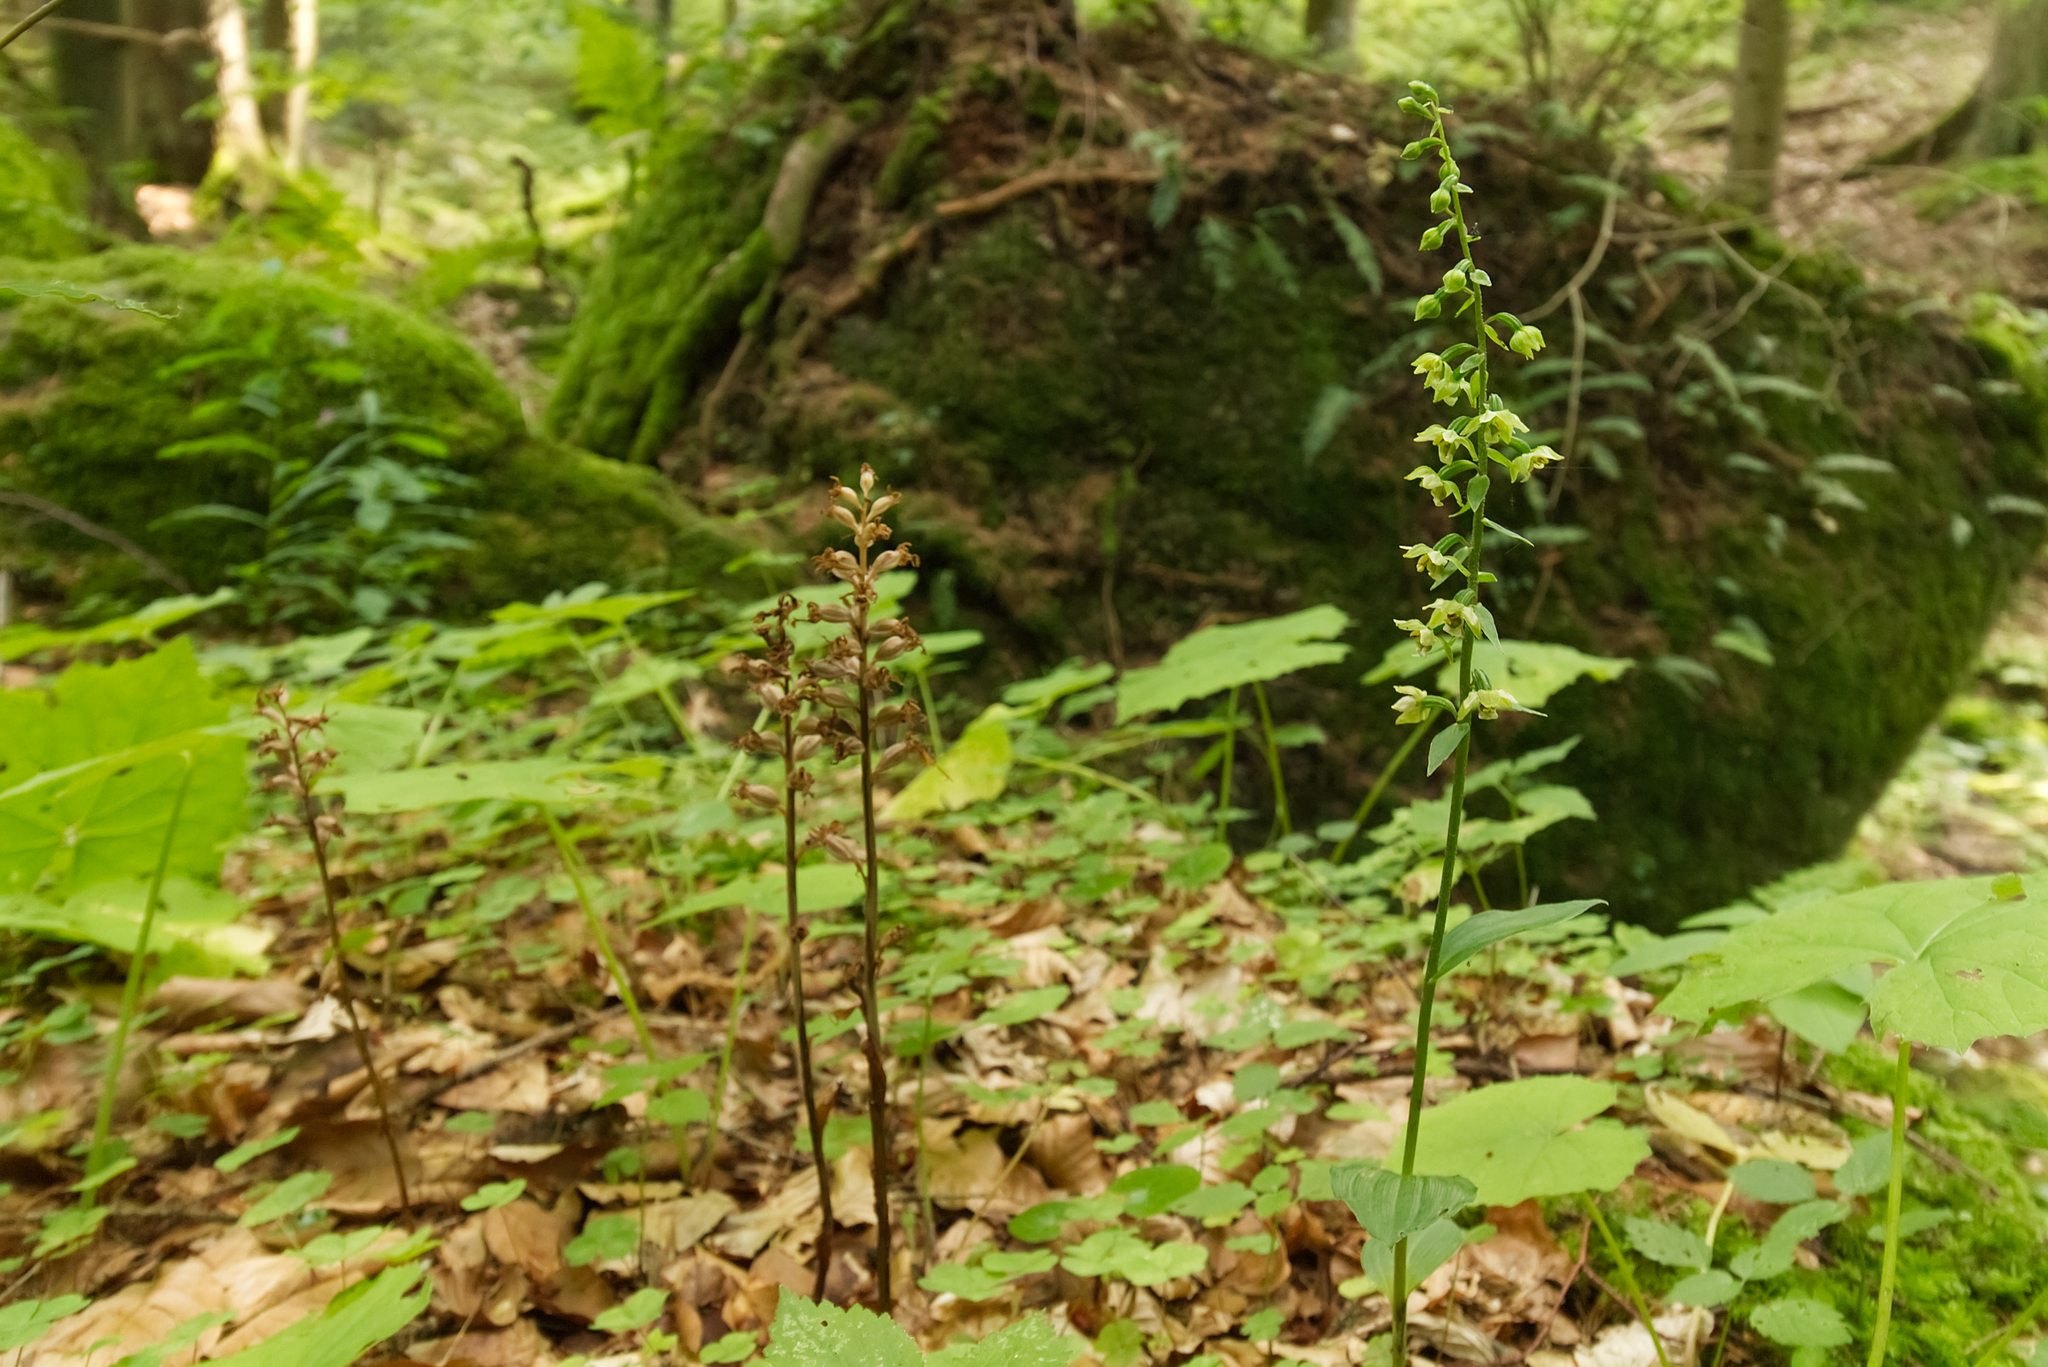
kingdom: Plantae
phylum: Tracheophyta
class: Liliopsida
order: Asparagales
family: Orchidaceae
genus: Epipactis
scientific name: Epipactis helleborine
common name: Broad-leaved helleborine
